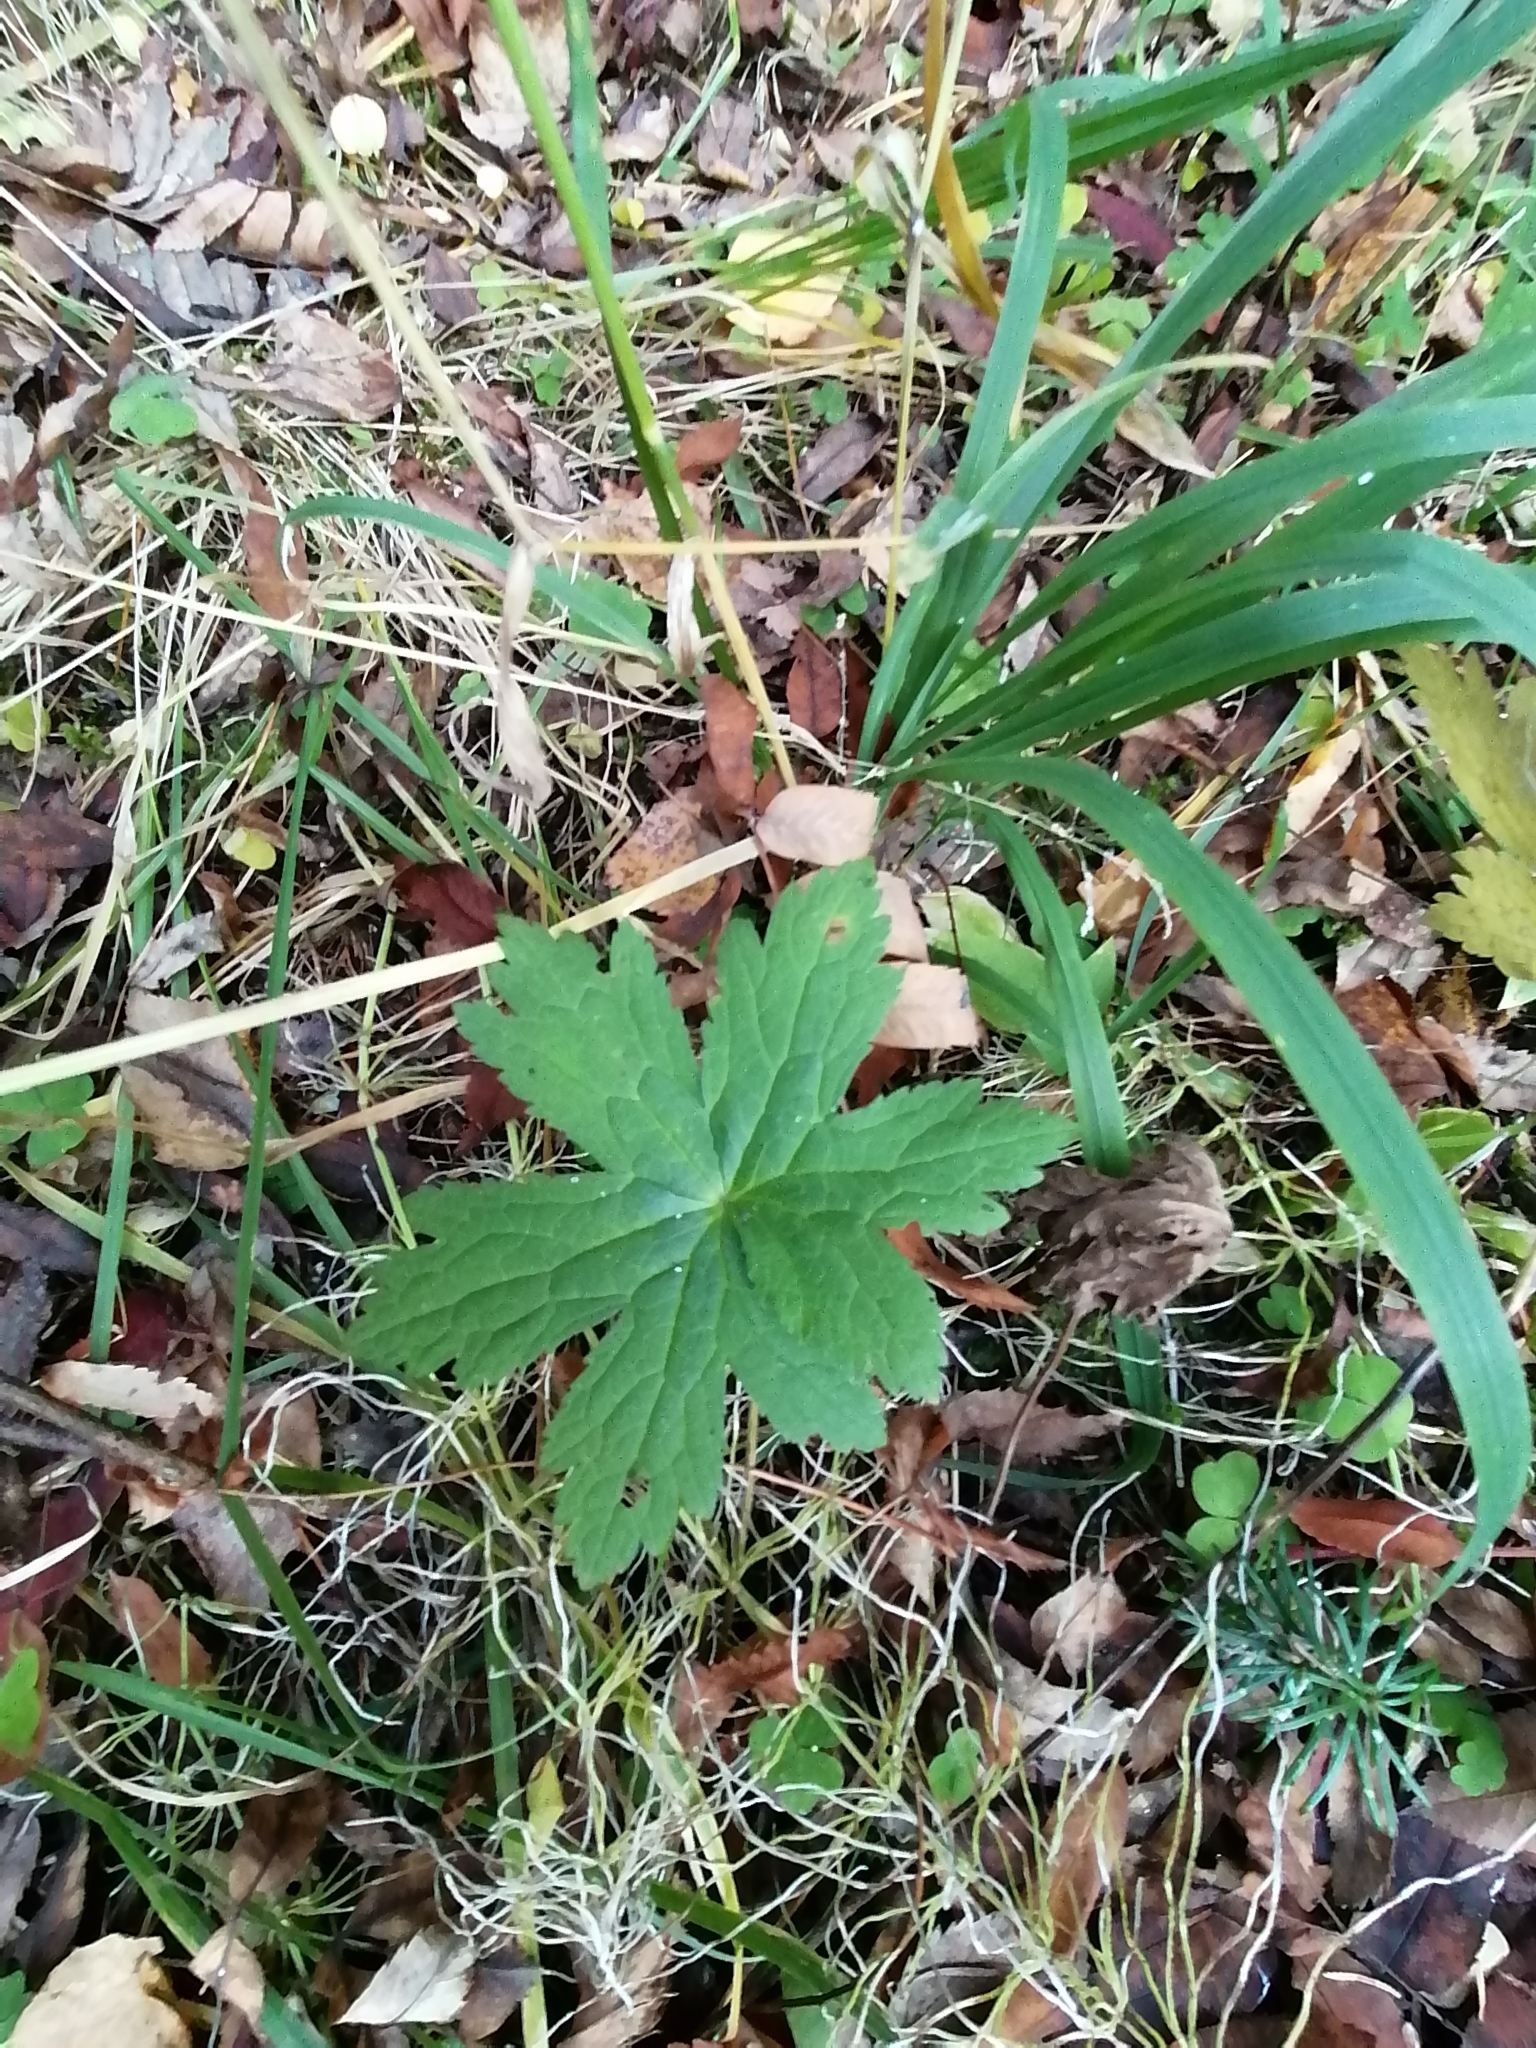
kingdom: Plantae
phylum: Tracheophyta
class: Magnoliopsida
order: Geraniales
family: Geraniaceae
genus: Geranium
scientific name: Geranium sylvaticum
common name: Wood crane's-bill
